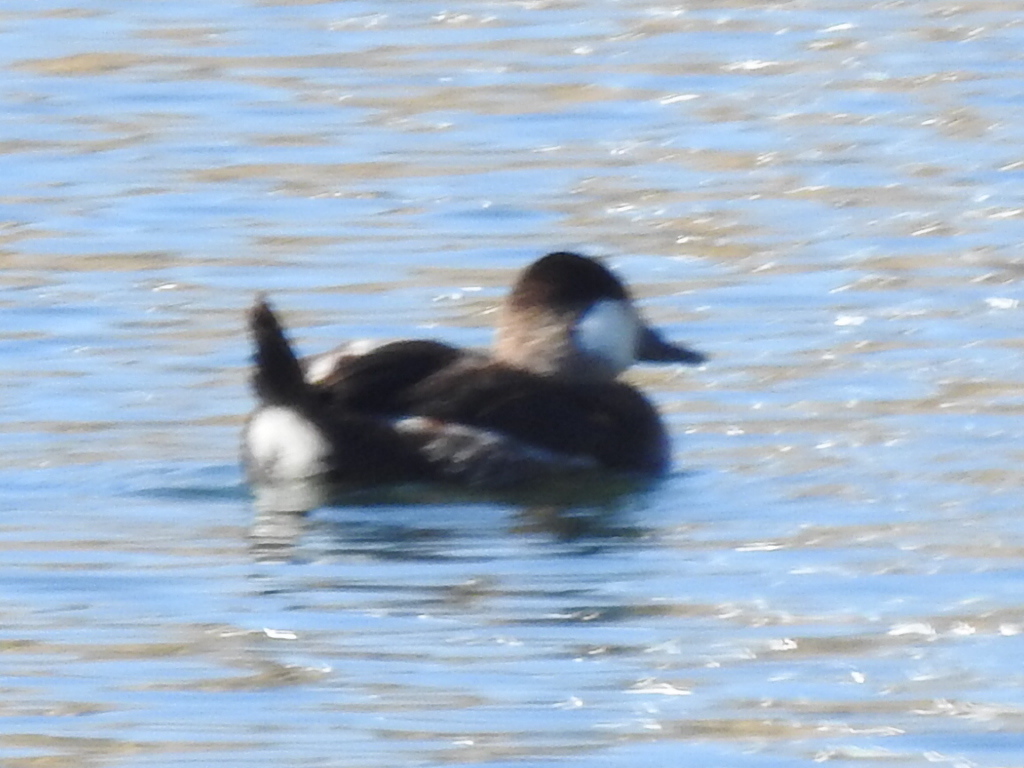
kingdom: Animalia
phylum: Chordata
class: Aves
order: Anseriformes
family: Anatidae
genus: Oxyura
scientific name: Oxyura jamaicensis
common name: Ruddy duck
